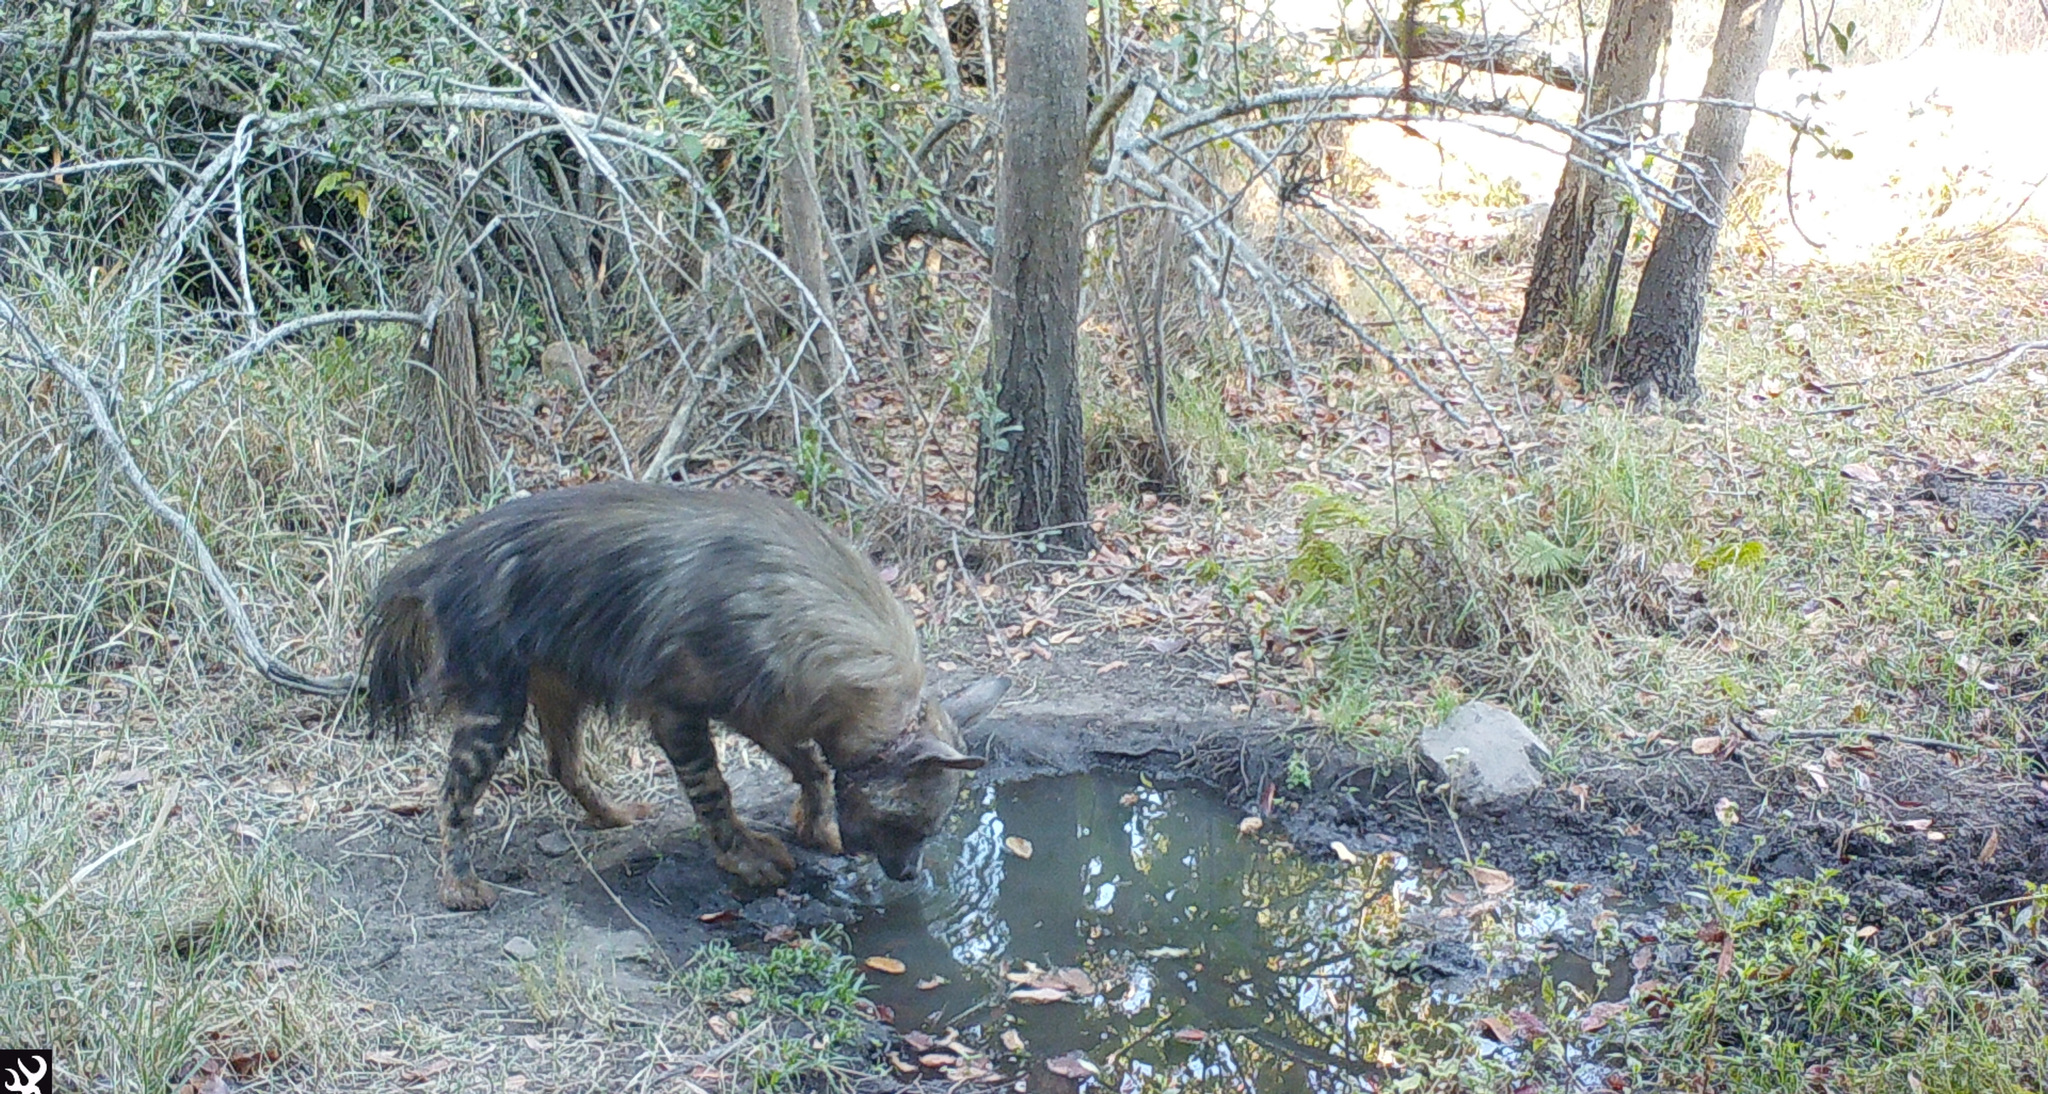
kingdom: Animalia
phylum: Chordata
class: Mammalia
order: Carnivora
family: Hyaenidae
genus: Hyaena
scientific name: Hyaena brunnea
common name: Brown hyena
